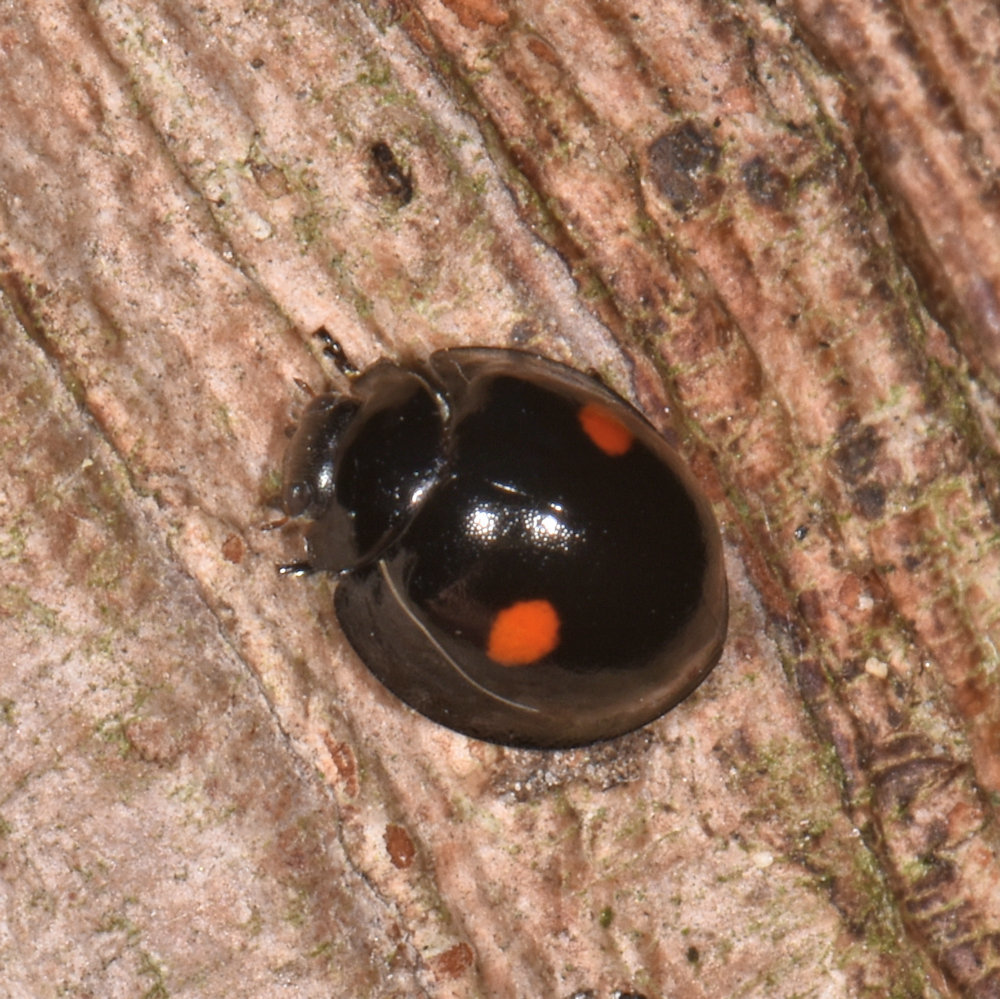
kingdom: Animalia
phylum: Arthropoda
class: Insecta
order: Coleoptera
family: Coccinellidae
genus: Chilocorus
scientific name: Chilocorus stigma
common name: Twicestabbed lady beetle
